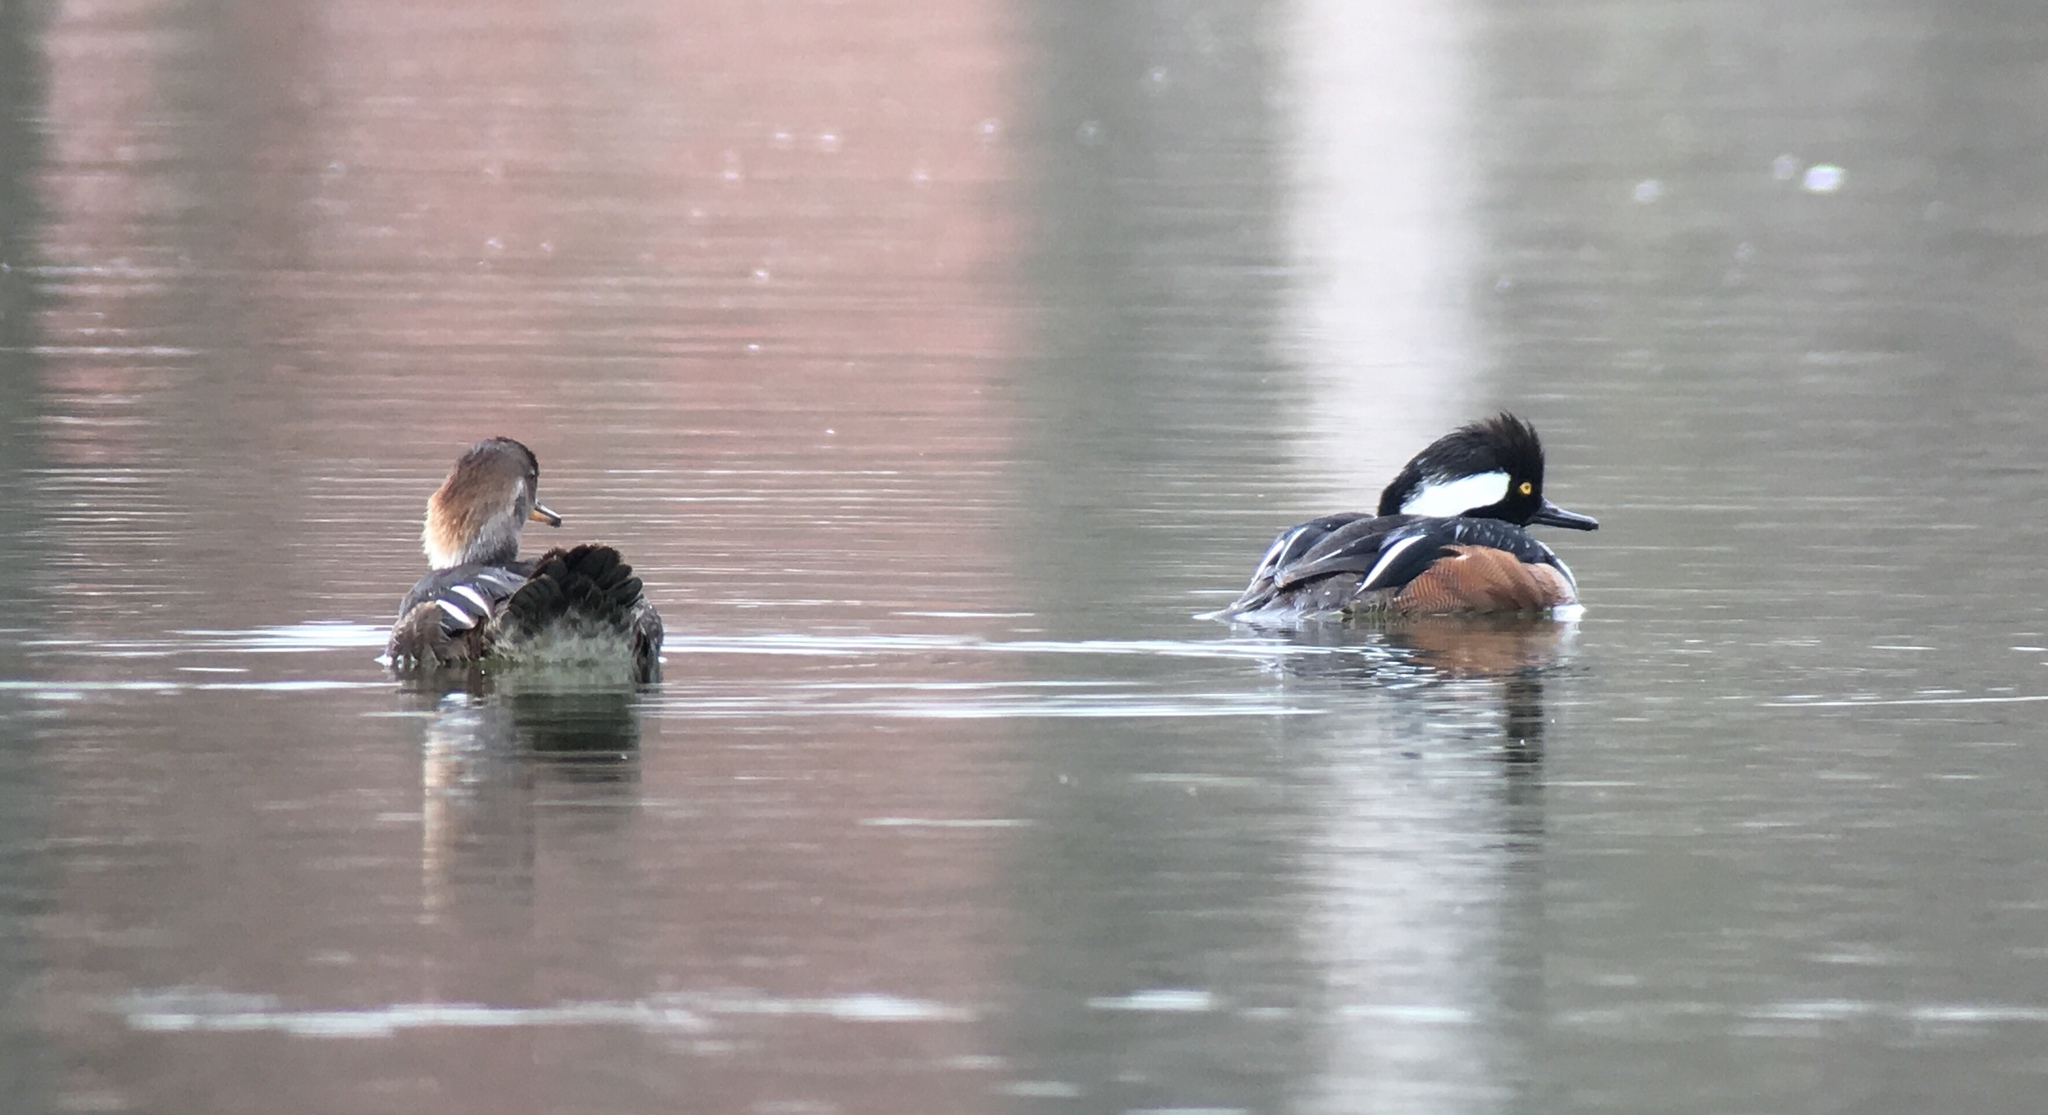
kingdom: Animalia
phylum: Chordata
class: Aves
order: Anseriformes
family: Anatidae
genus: Lophodytes
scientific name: Lophodytes cucullatus
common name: Hooded merganser
